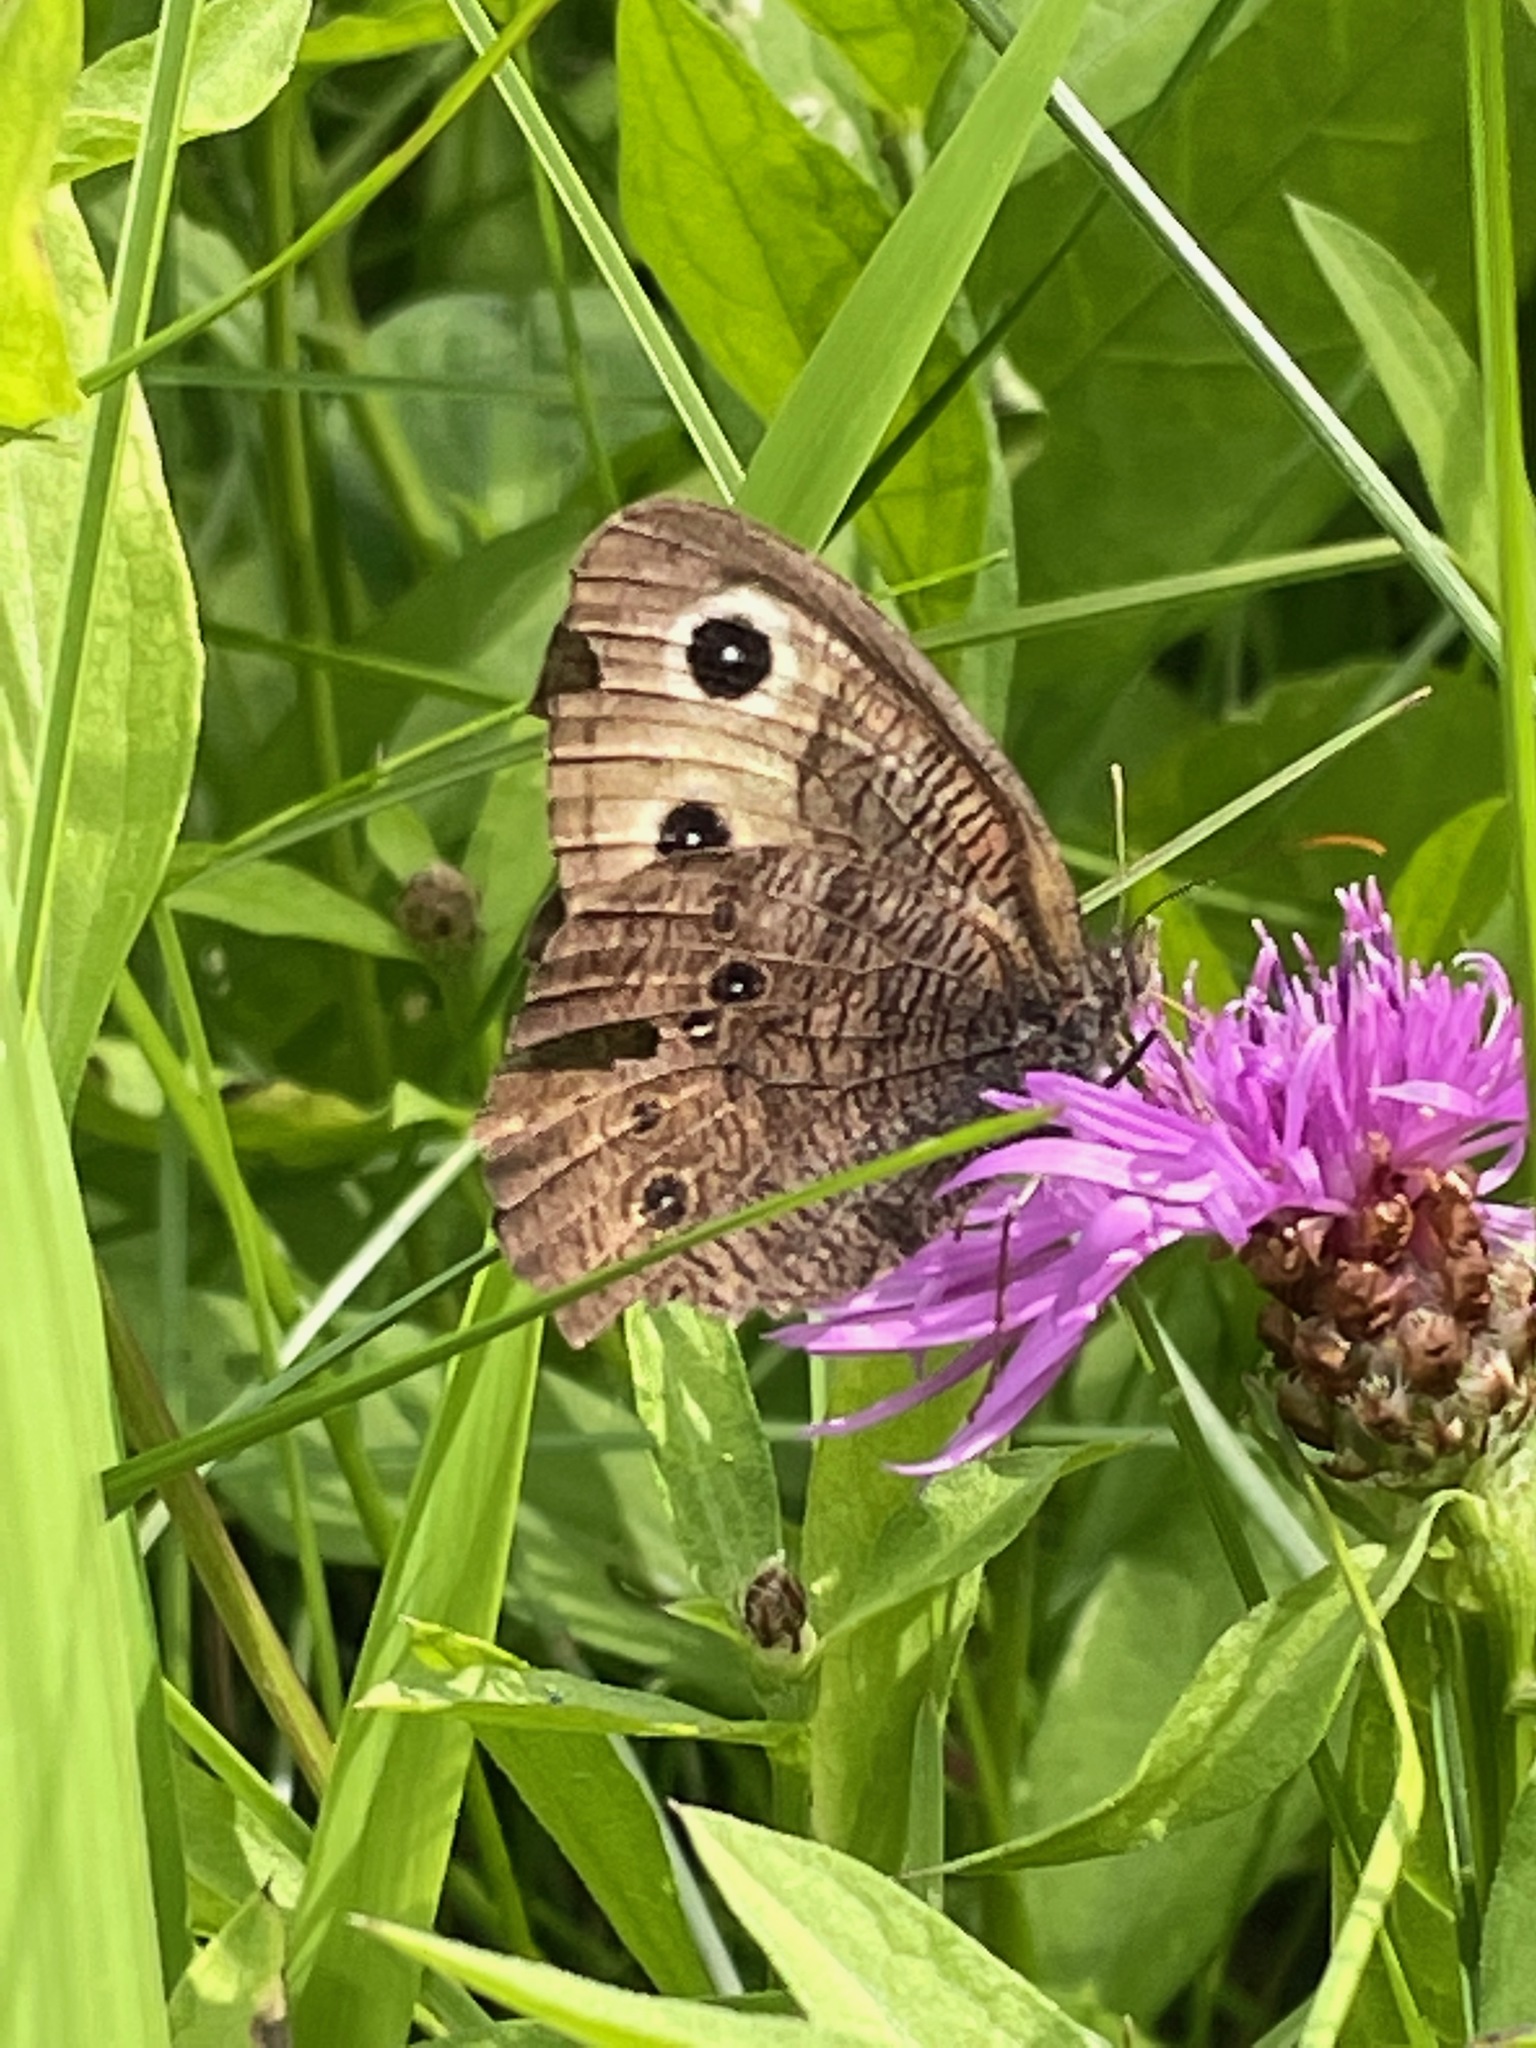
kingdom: Animalia
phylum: Arthropoda
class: Insecta
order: Lepidoptera
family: Nymphalidae
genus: Cercyonis
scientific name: Cercyonis pegala
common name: Common wood-nymph
